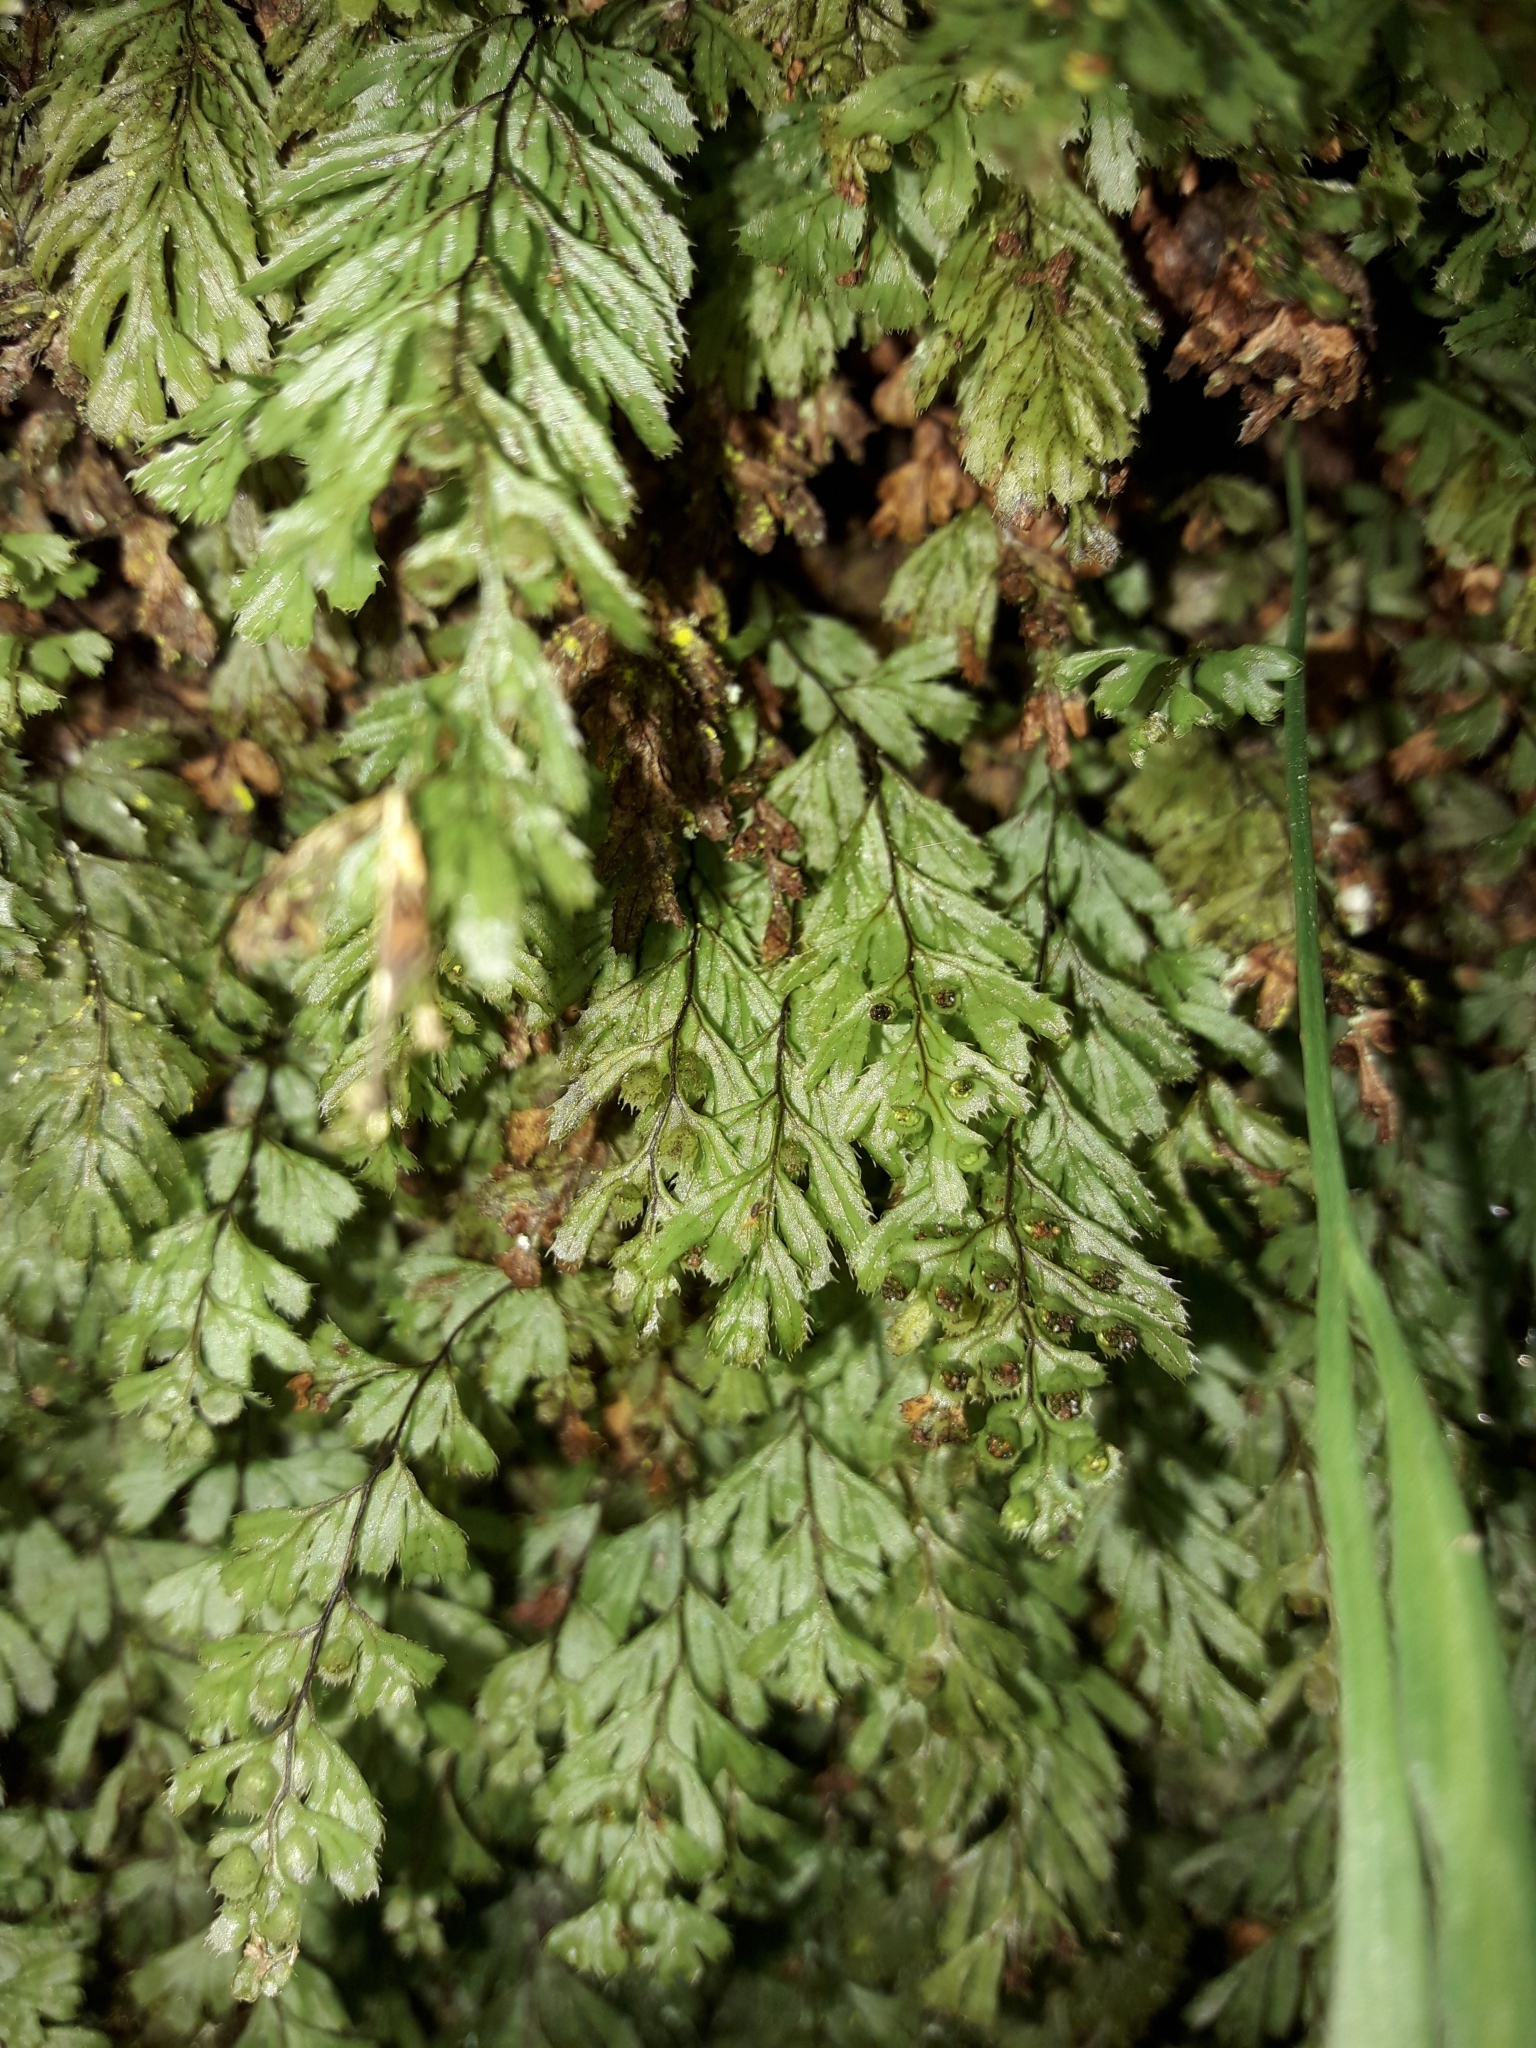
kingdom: Plantae
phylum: Tracheophyta
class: Polypodiopsida
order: Hymenophyllales
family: Hymenophyllaceae
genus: Hymenophyllum
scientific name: Hymenophyllum revolutum
